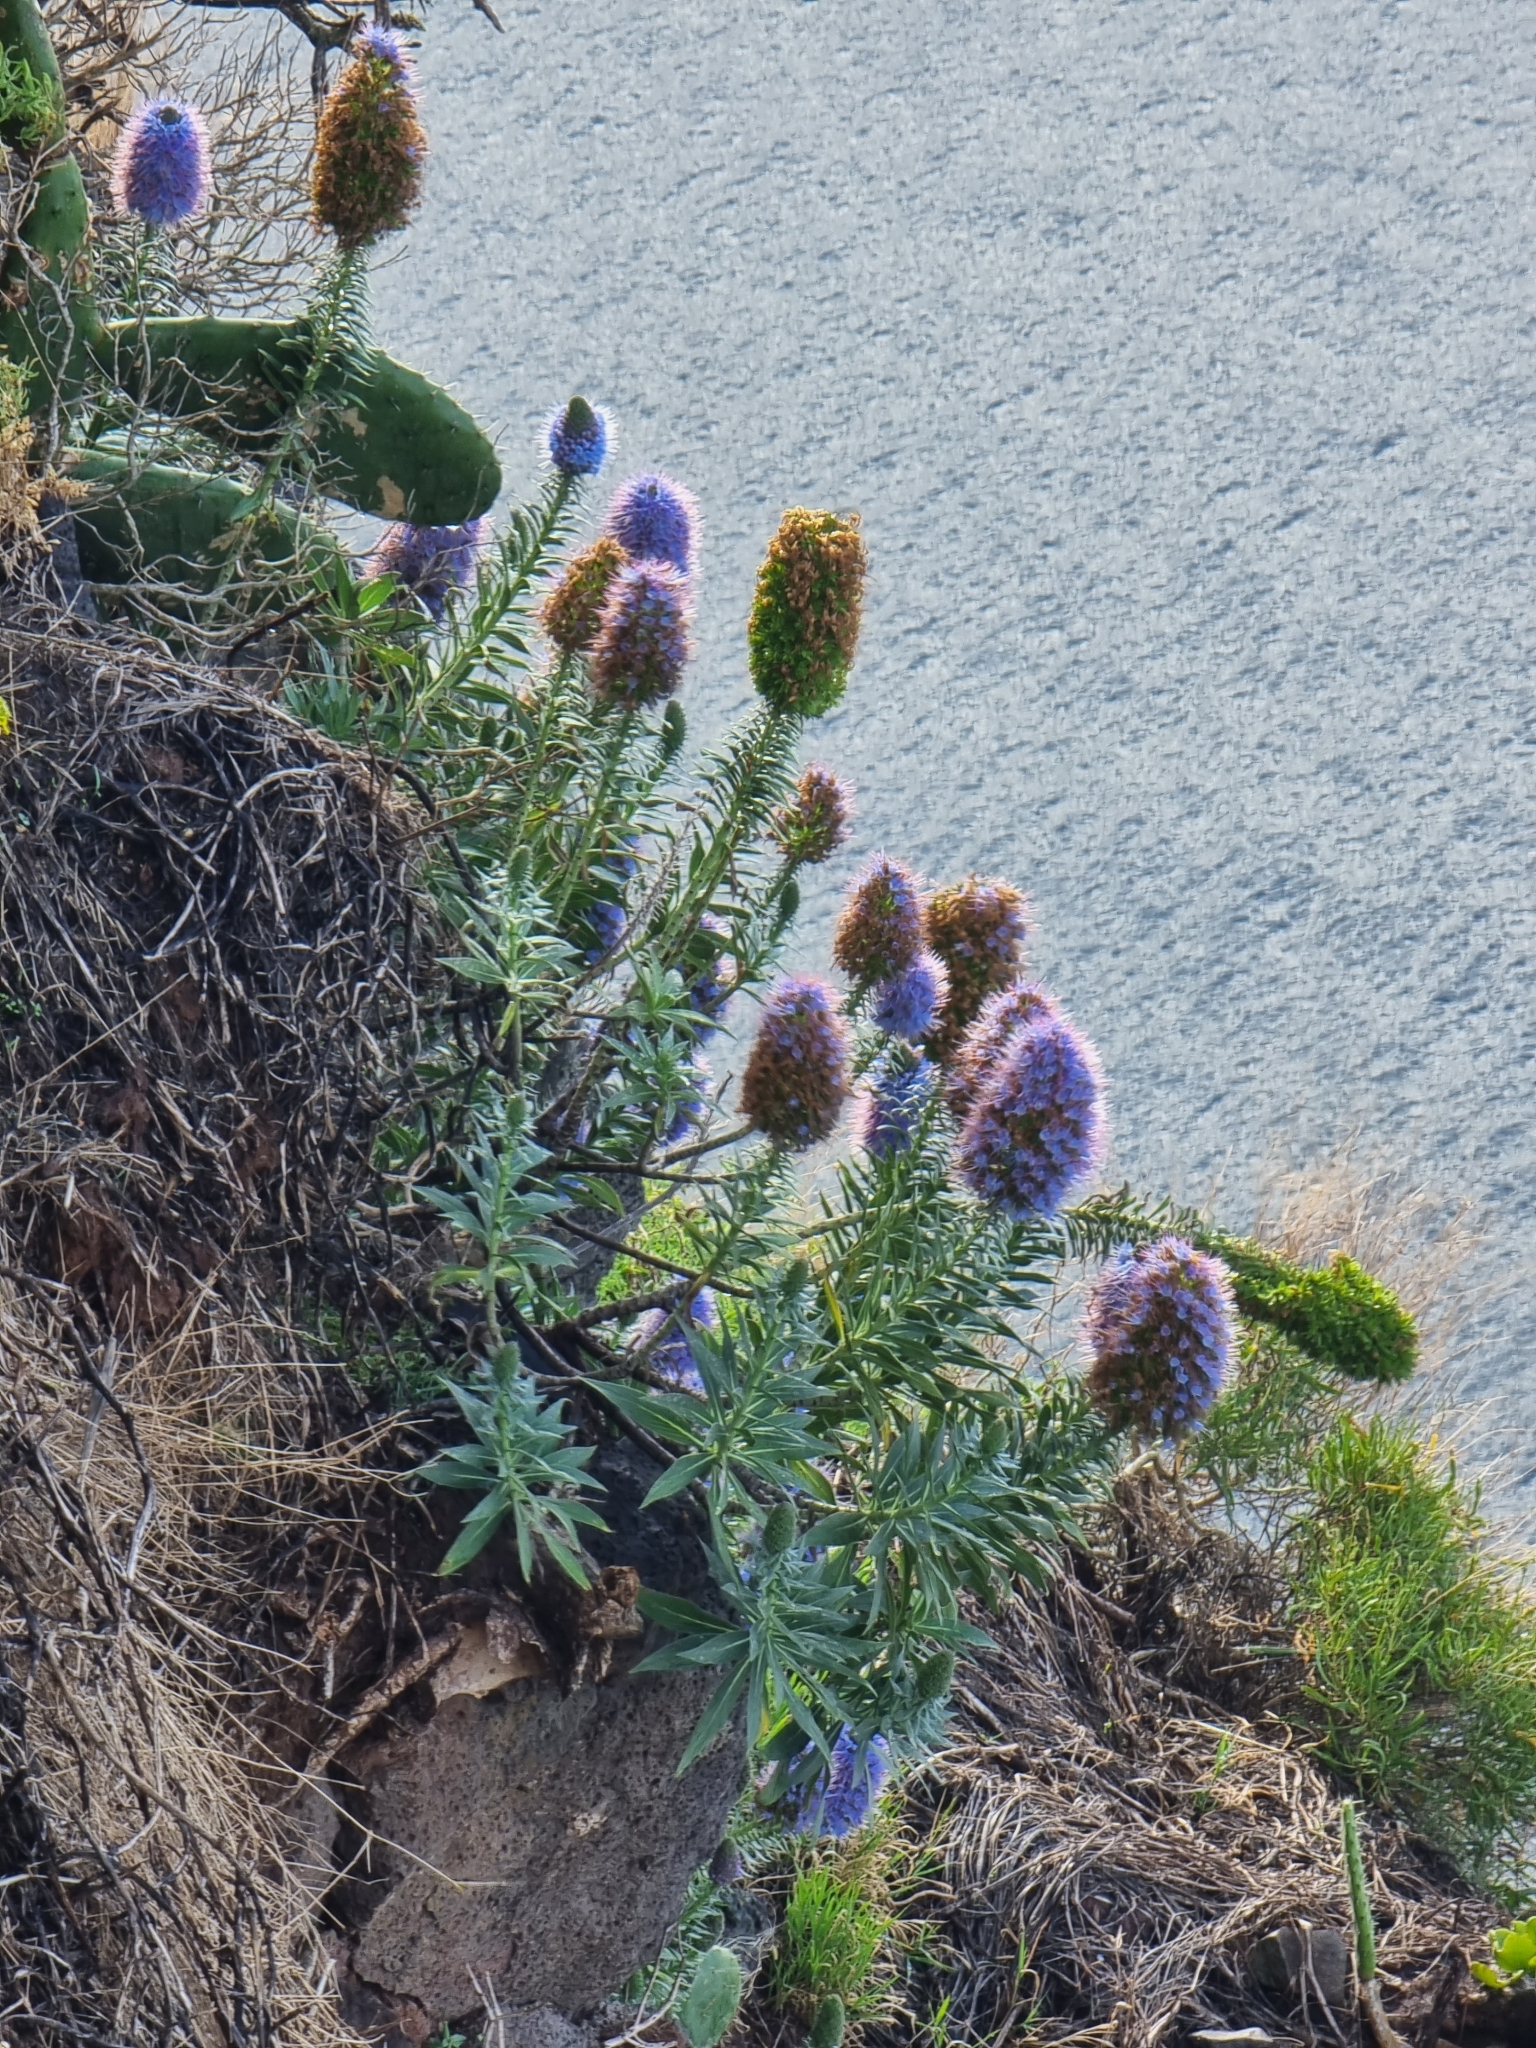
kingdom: Plantae
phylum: Tracheophyta
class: Magnoliopsida
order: Boraginales
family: Boraginaceae
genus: Echium
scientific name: Echium nervosum
